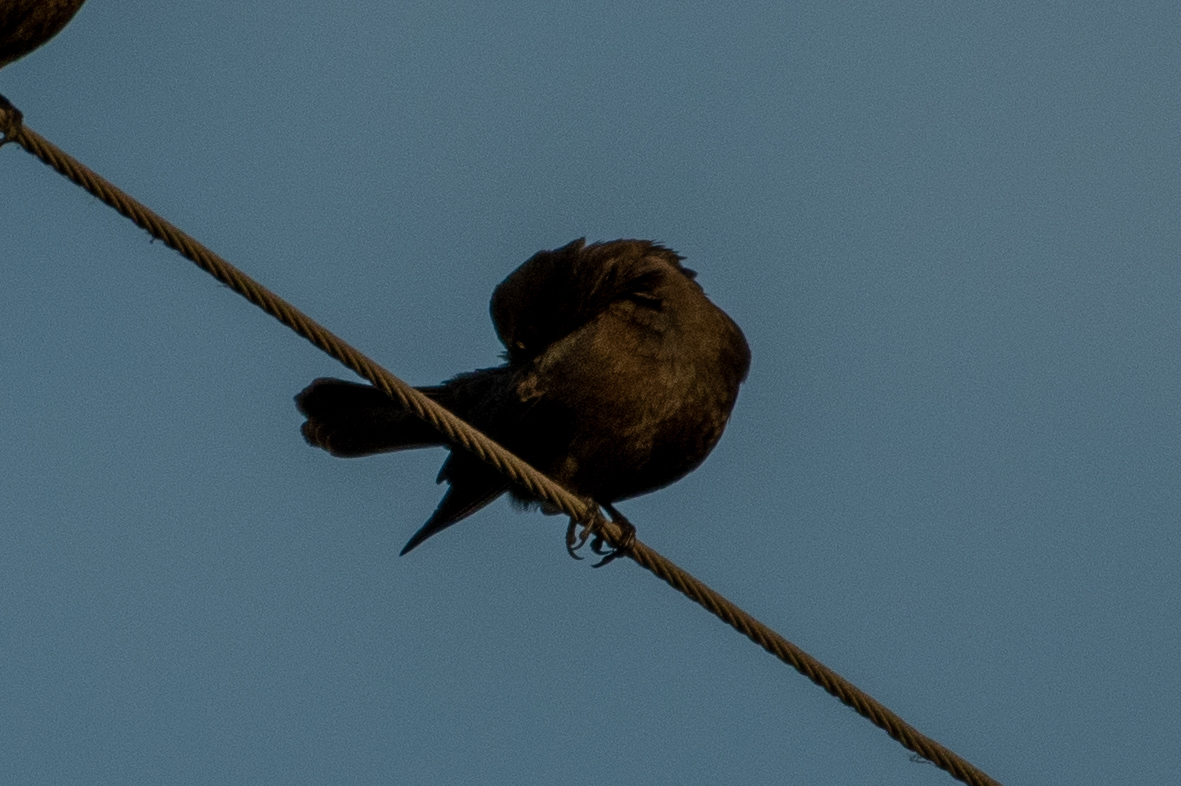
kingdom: Animalia
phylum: Chordata
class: Aves
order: Passeriformes
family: Icteridae
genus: Euphagus
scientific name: Euphagus cyanocephalus
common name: Brewer's blackbird
